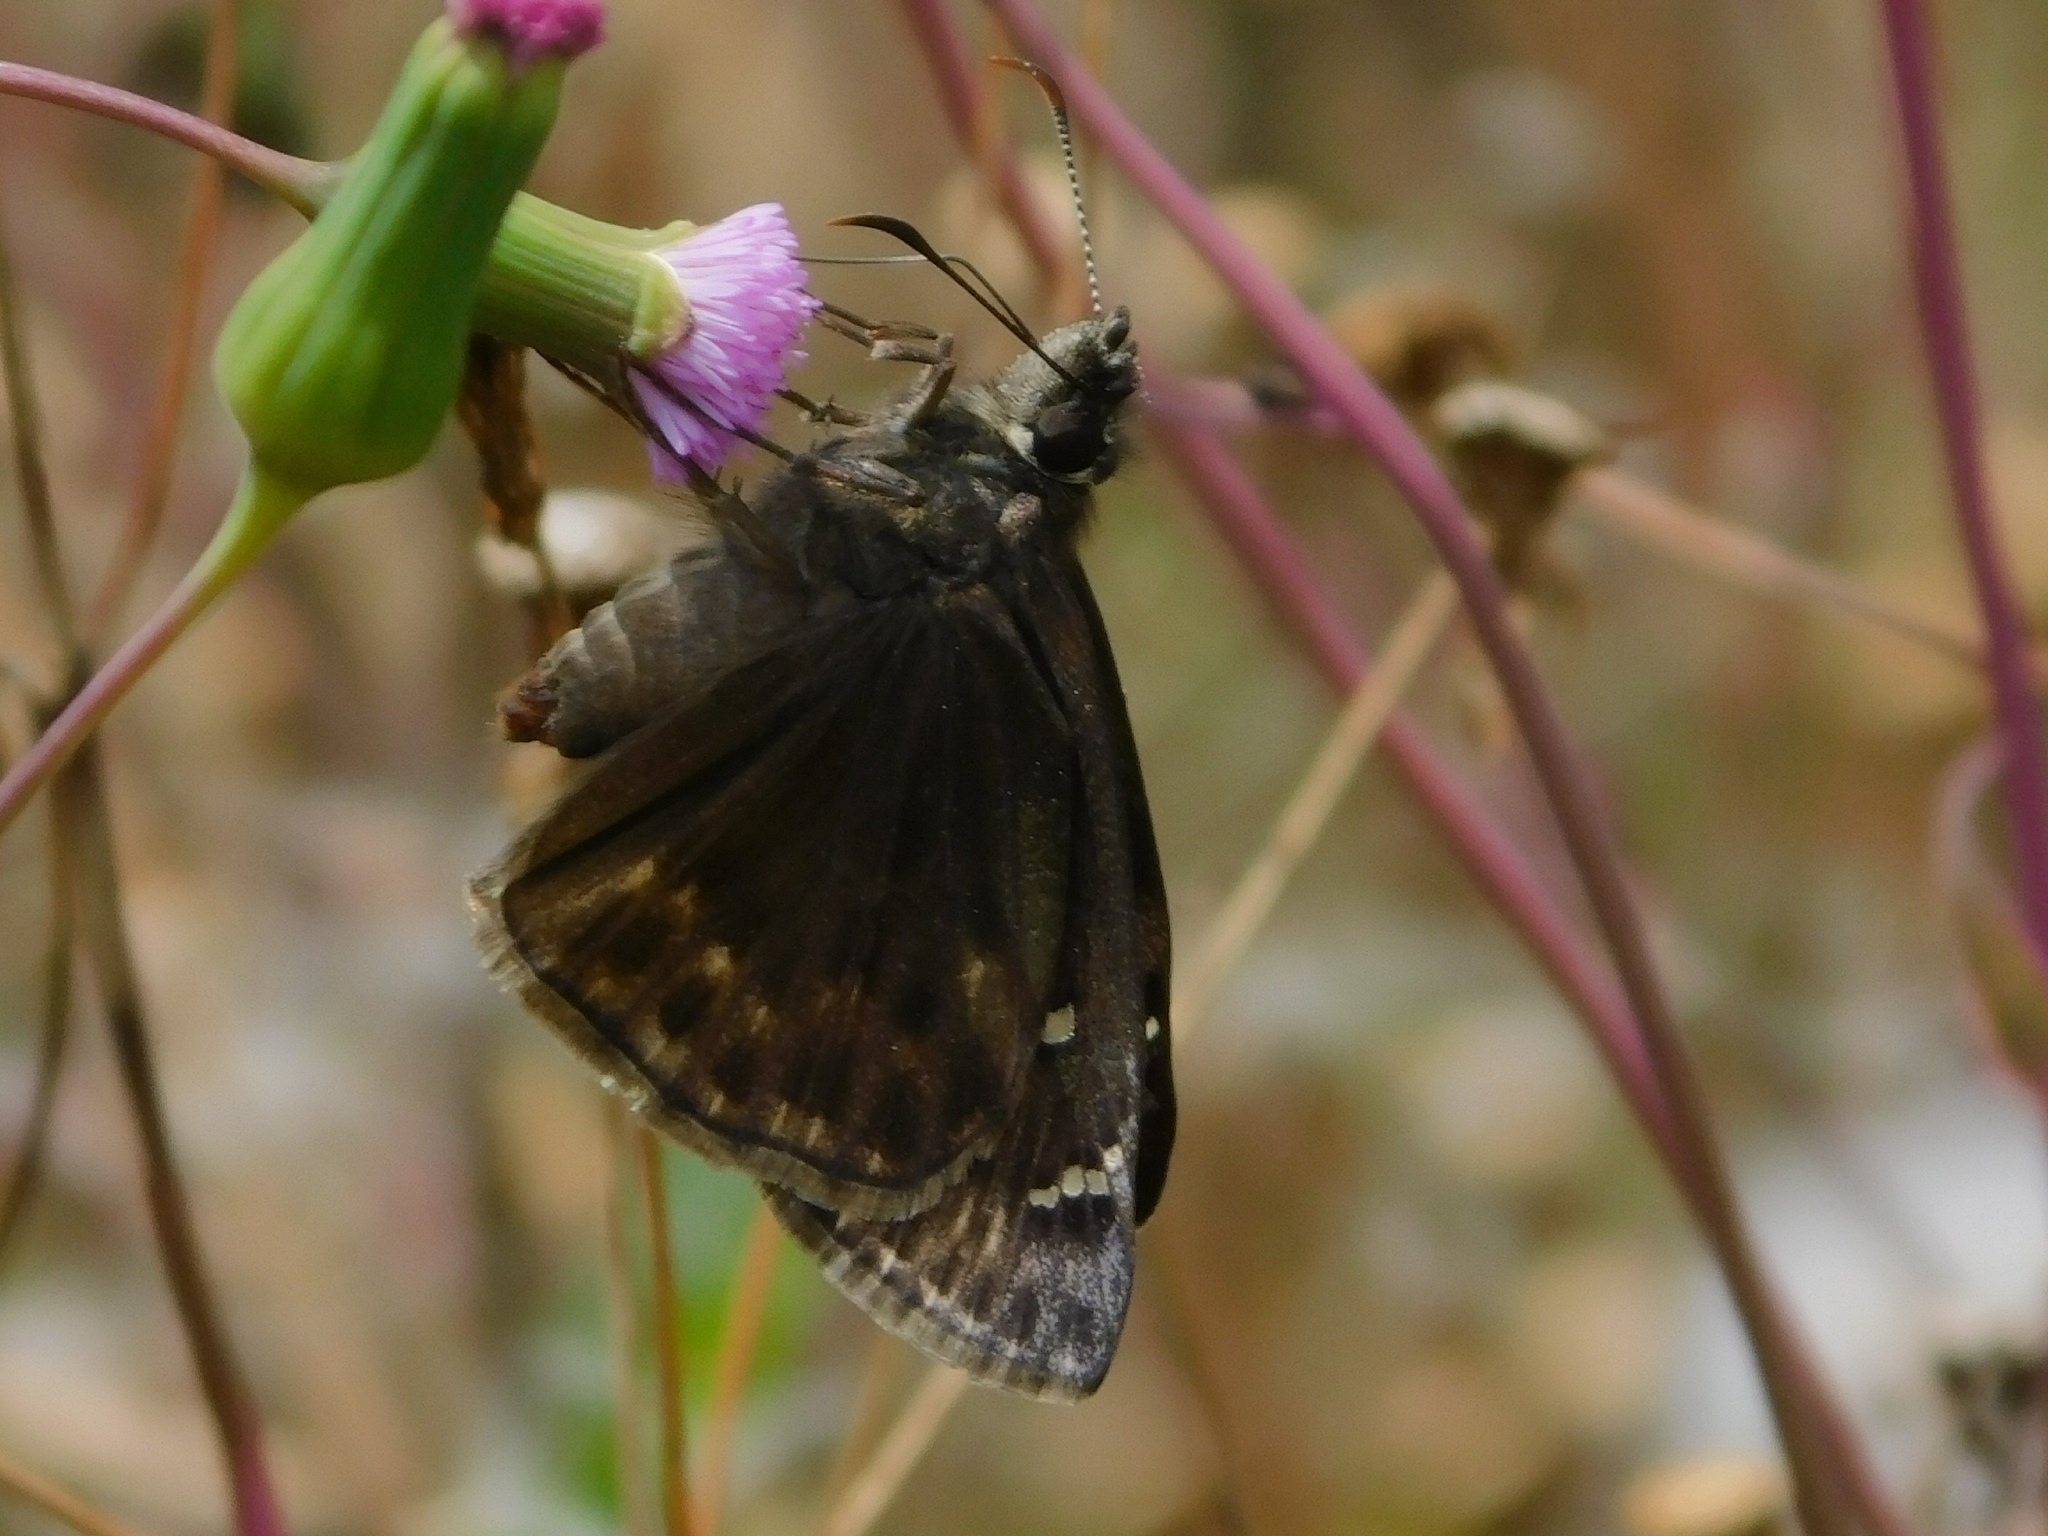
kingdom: Animalia
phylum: Arthropoda
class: Insecta
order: Lepidoptera
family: Hesperiidae
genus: Erynnis
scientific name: Erynnis horatius
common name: Horace's duskywing
